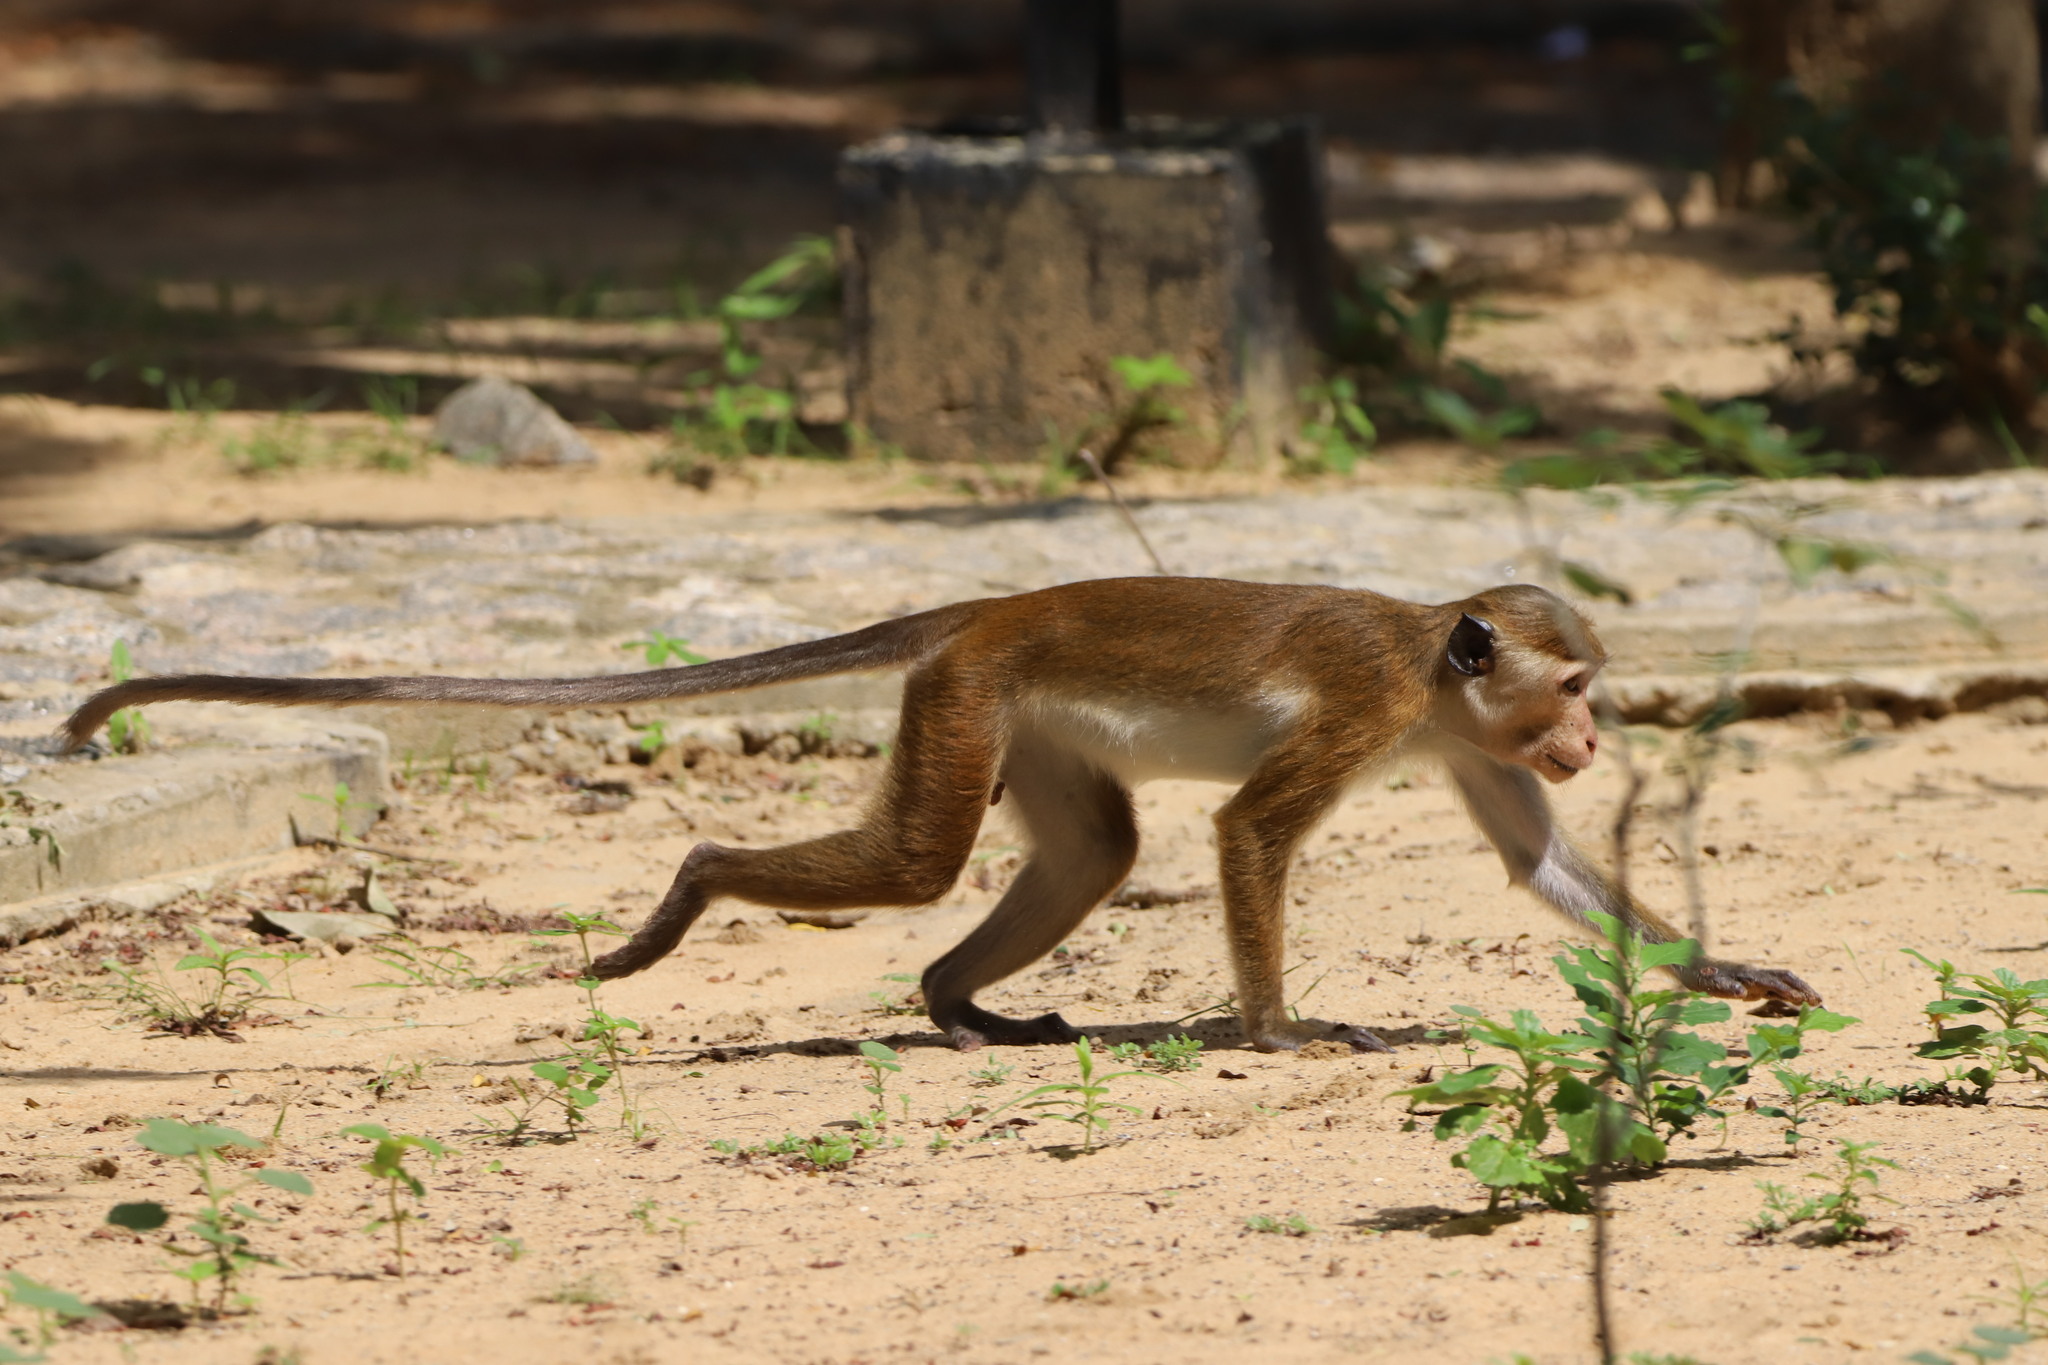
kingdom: Animalia
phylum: Chordata
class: Mammalia
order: Primates
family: Cercopithecidae
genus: Macaca
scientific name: Macaca sinica
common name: Toque macaque
